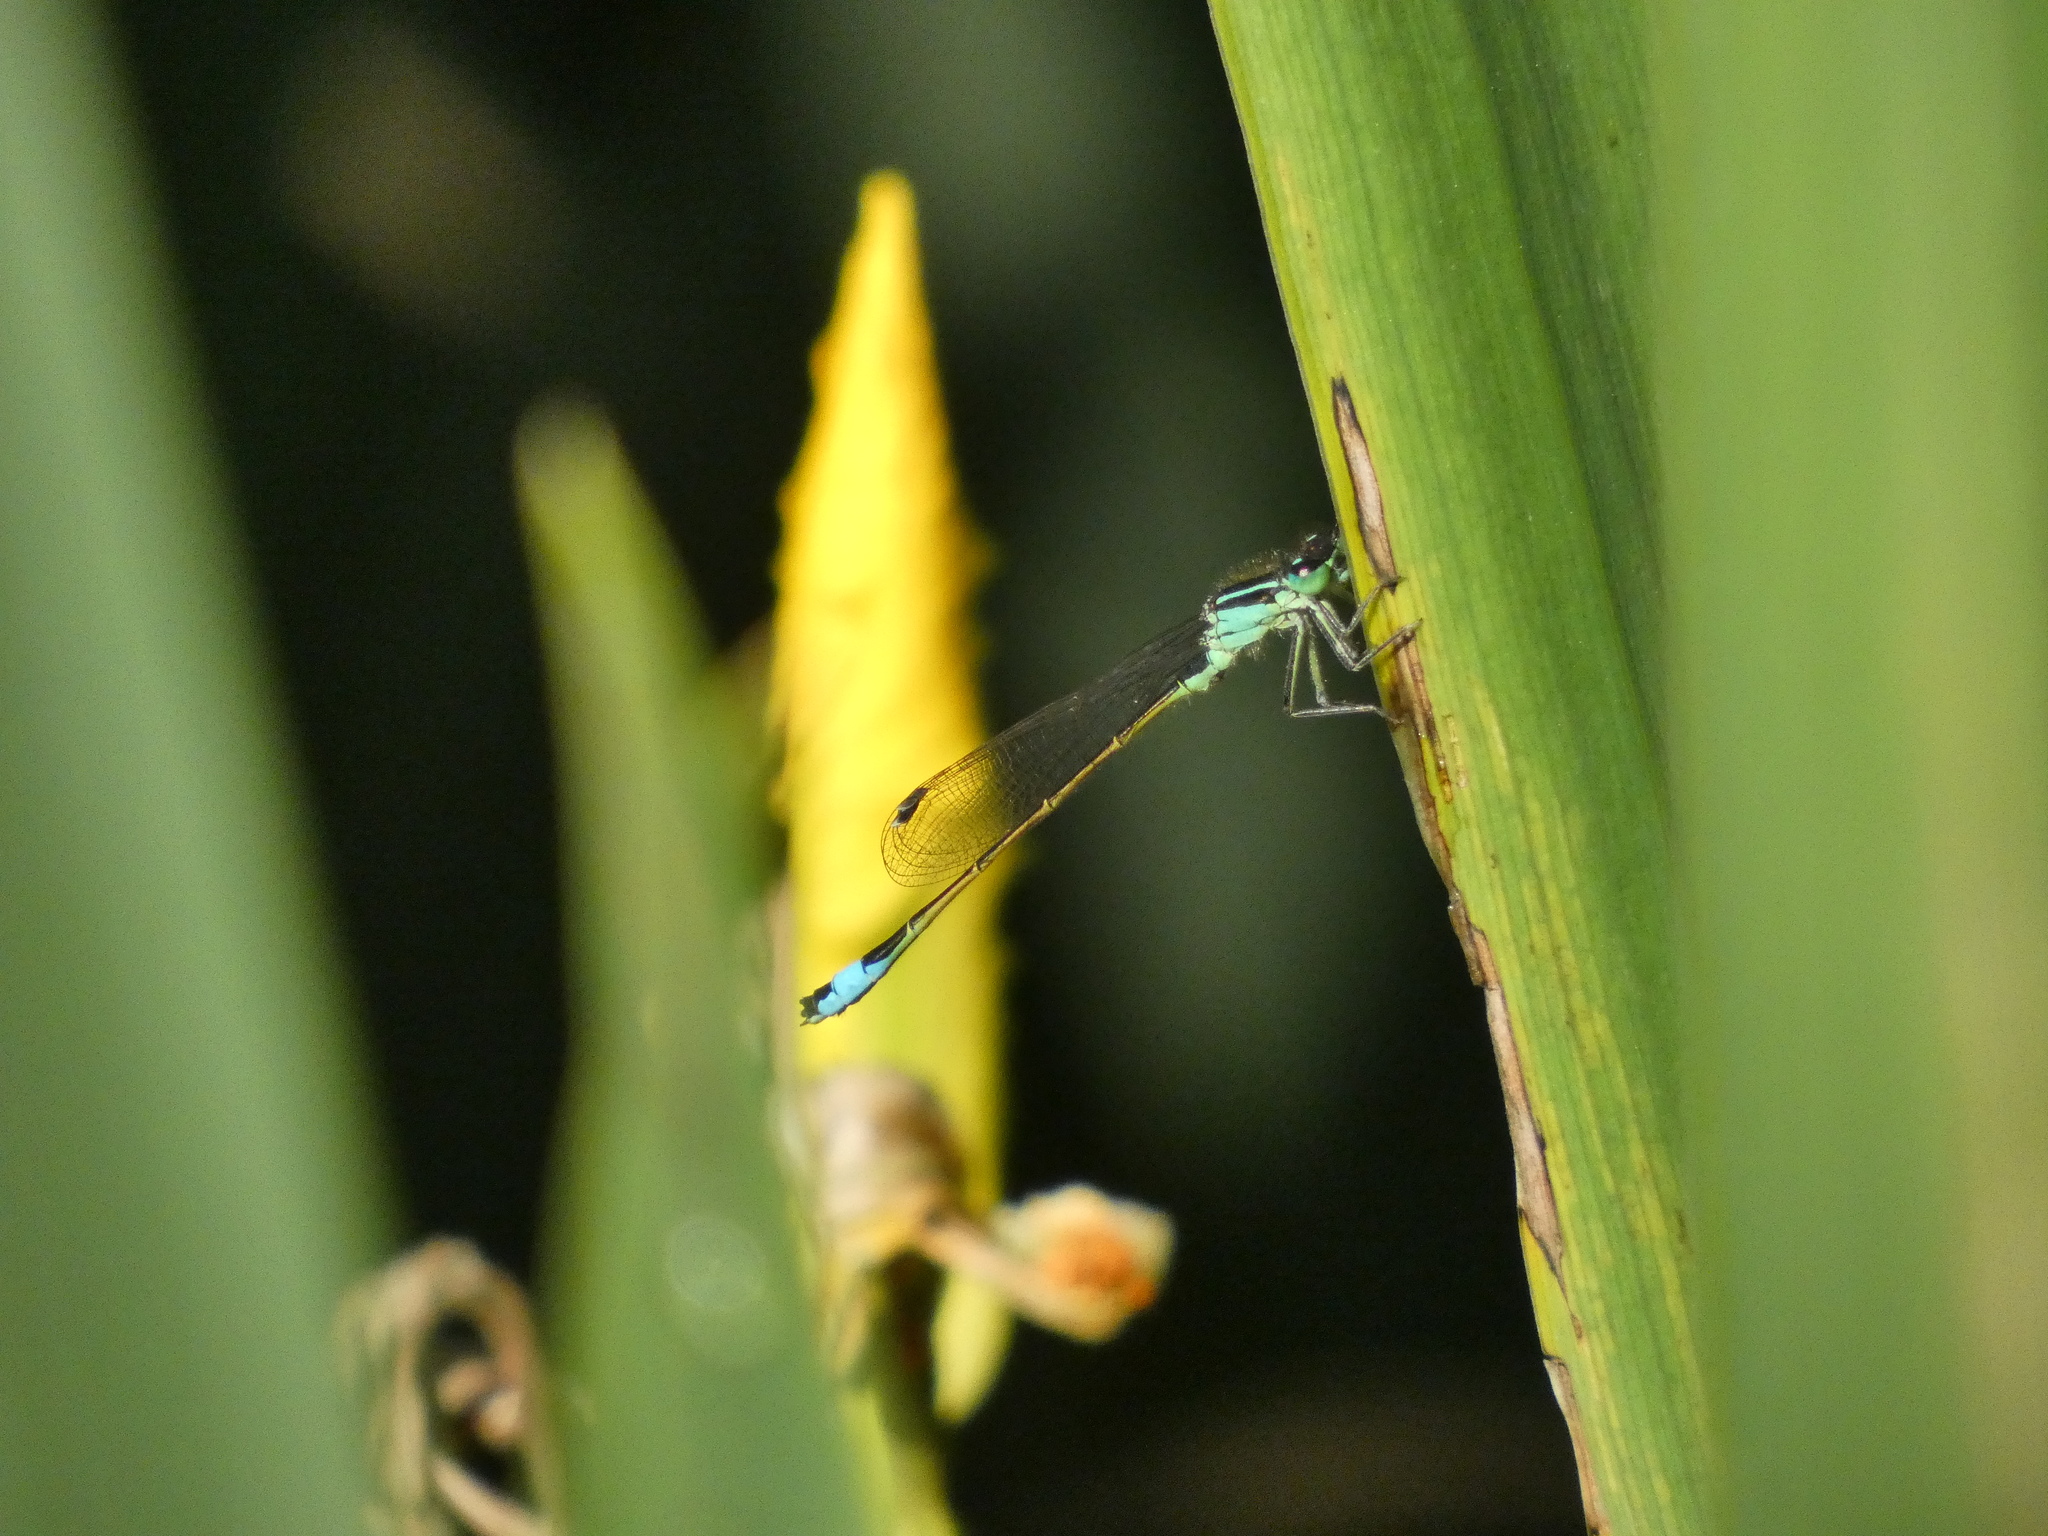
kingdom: Animalia
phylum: Arthropoda
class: Insecta
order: Odonata
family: Coenagrionidae
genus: Ischnura
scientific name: Ischnura elegans
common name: Blue-tailed damselfly
